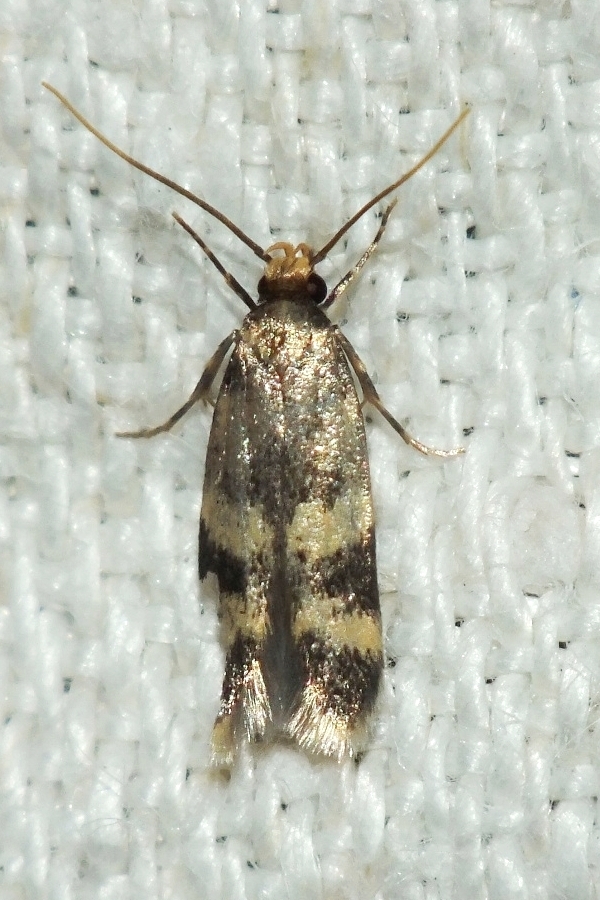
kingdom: Animalia
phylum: Arthropoda
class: Insecta
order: Lepidoptera
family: Autostichidae
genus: Oegoconia
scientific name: Oegoconia caradjai
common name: Straw obscure
